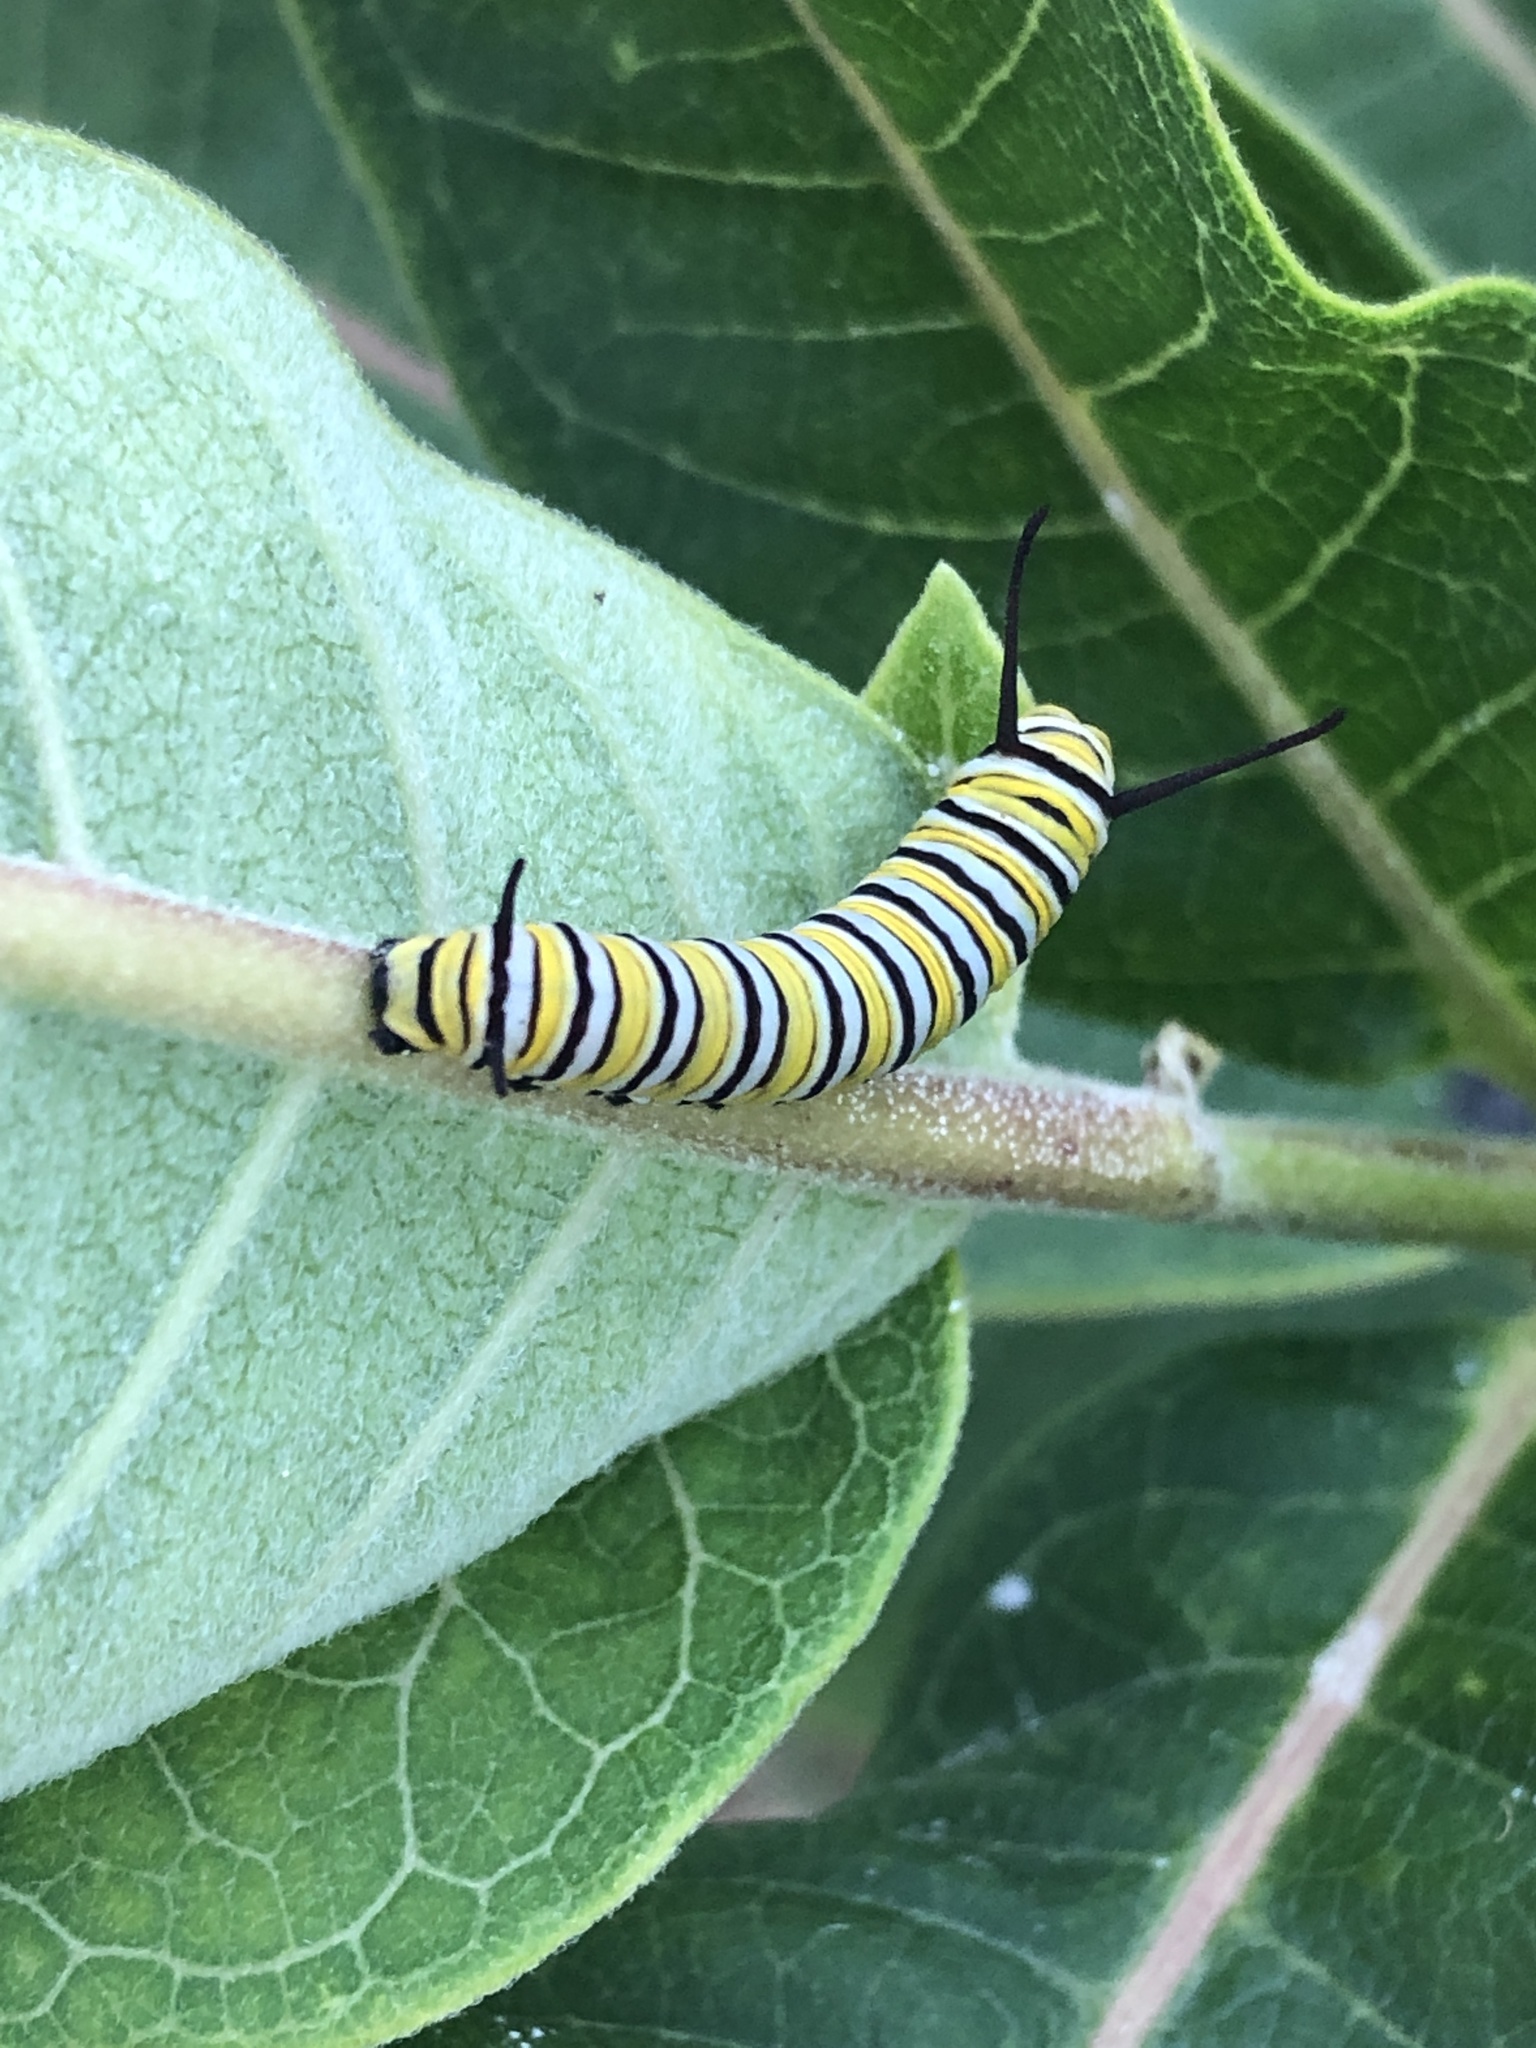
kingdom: Animalia
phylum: Arthropoda
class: Insecta
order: Lepidoptera
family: Nymphalidae
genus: Danaus
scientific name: Danaus plexippus
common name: Monarch
